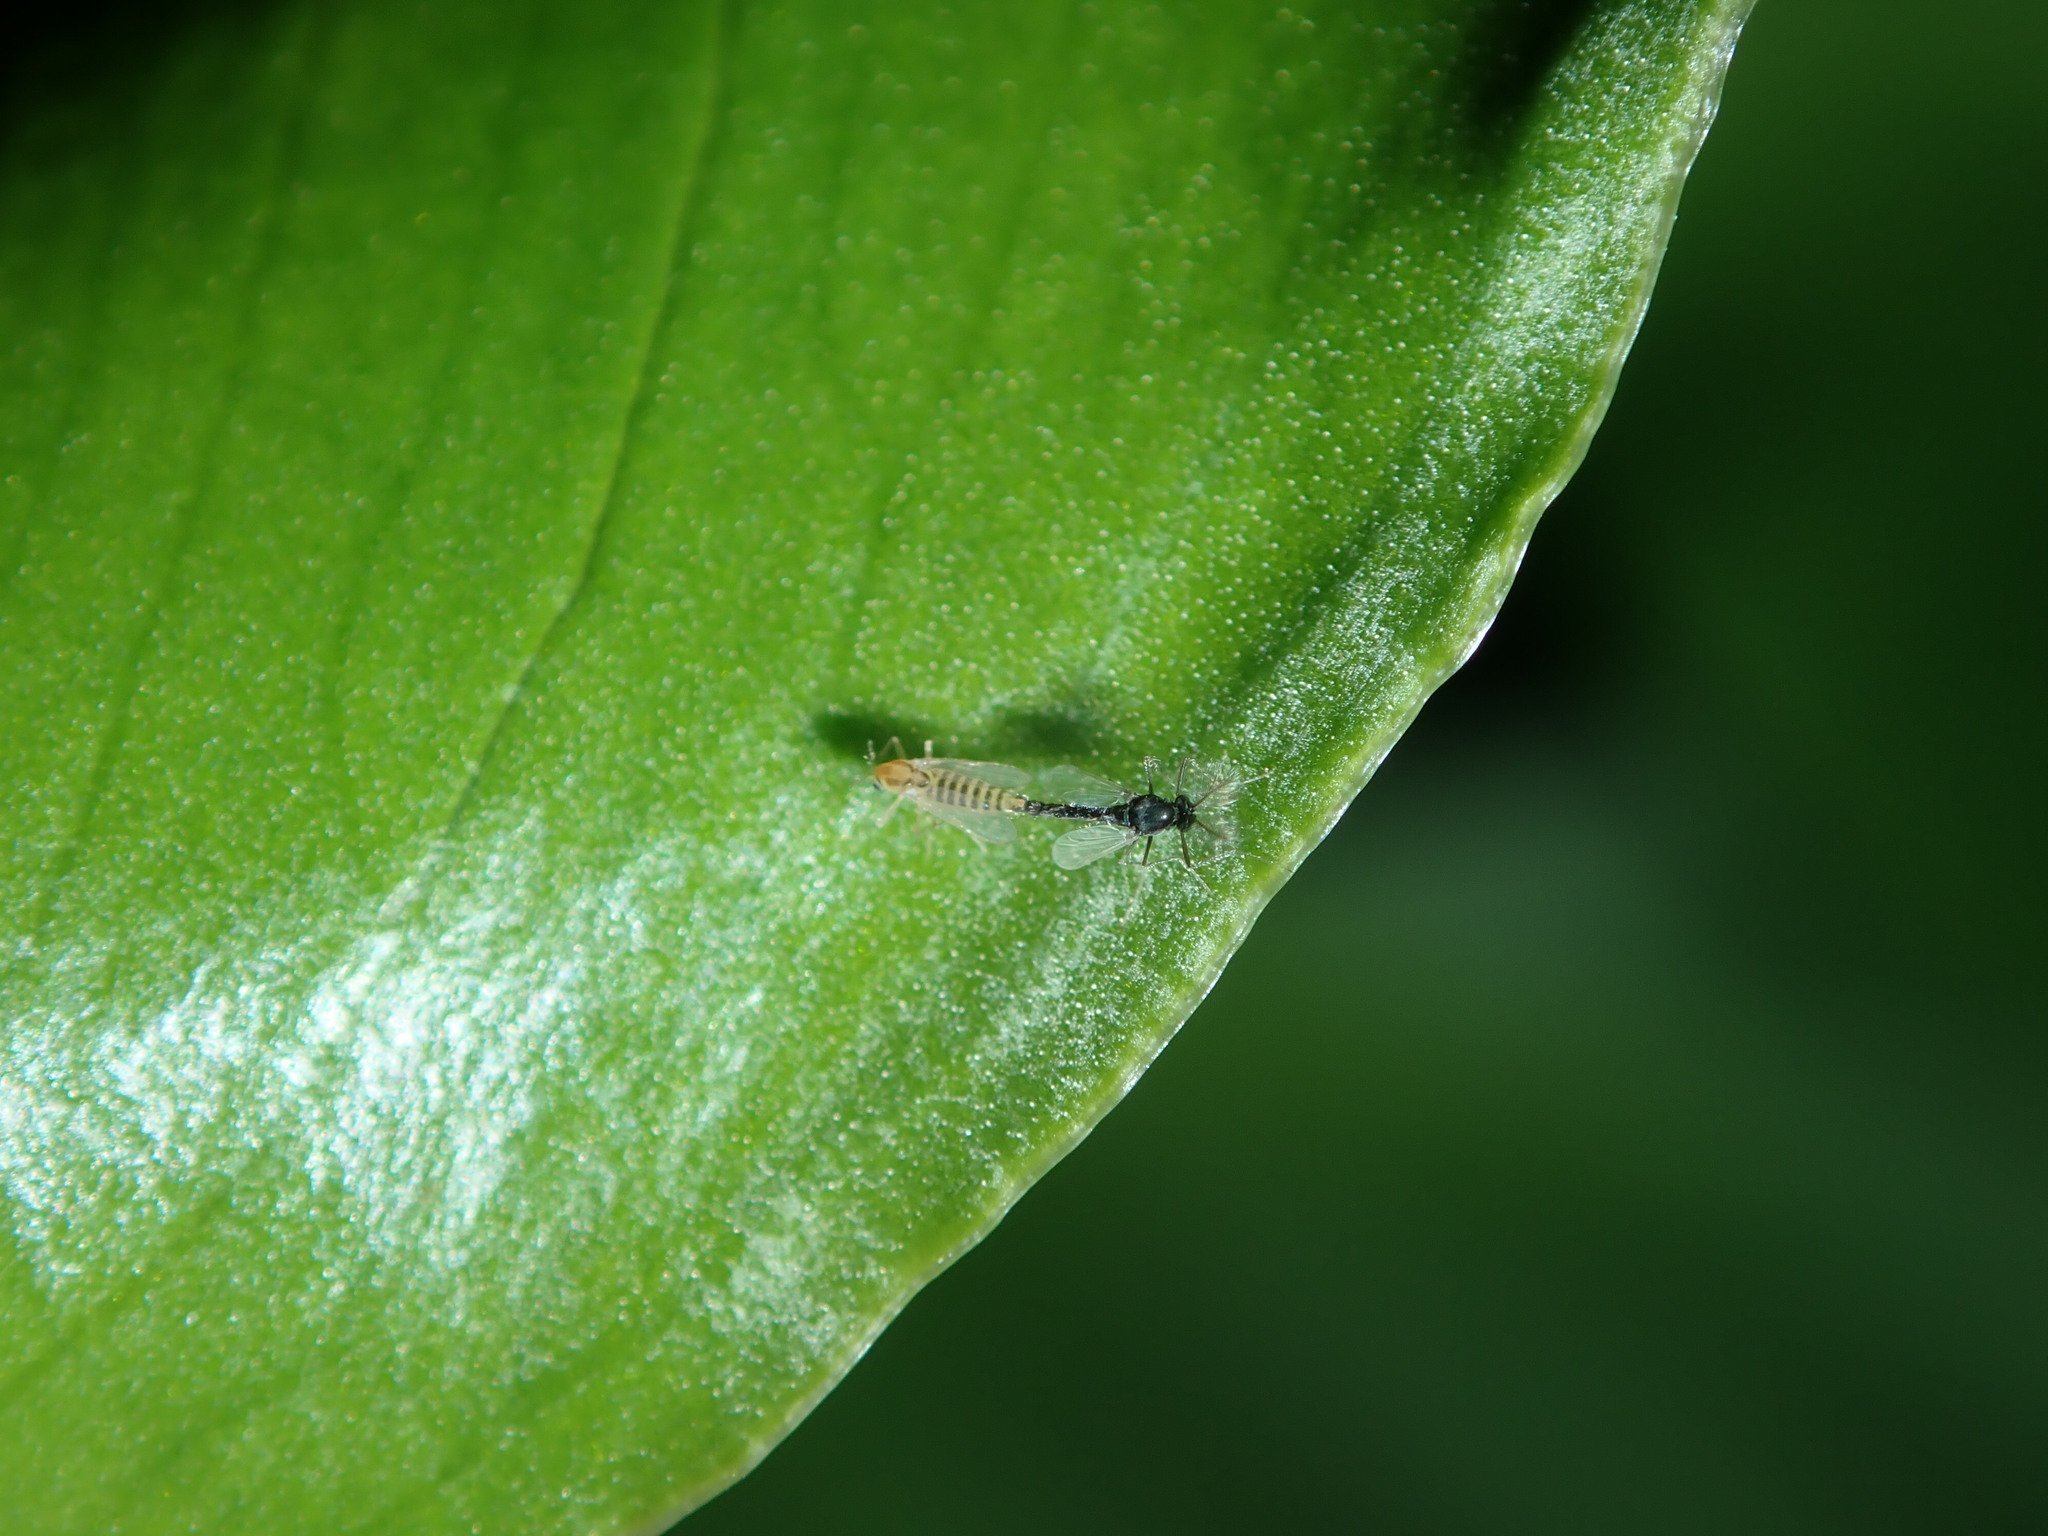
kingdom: Animalia
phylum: Arthropoda
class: Insecta
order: Diptera
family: Chironomidae
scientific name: Chironomidae
